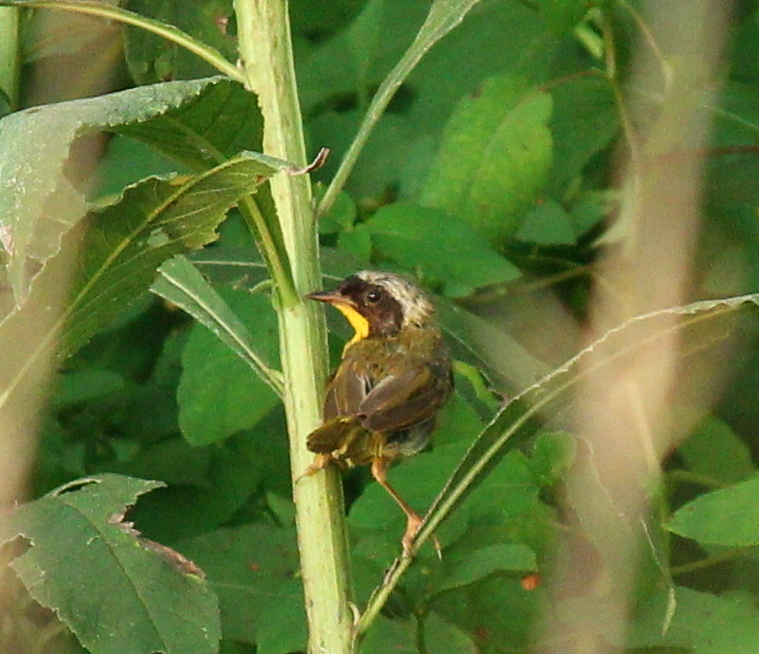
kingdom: Animalia
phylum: Chordata
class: Aves
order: Passeriformes
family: Parulidae
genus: Geothlypis
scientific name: Geothlypis trichas
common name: Common yellowthroat
